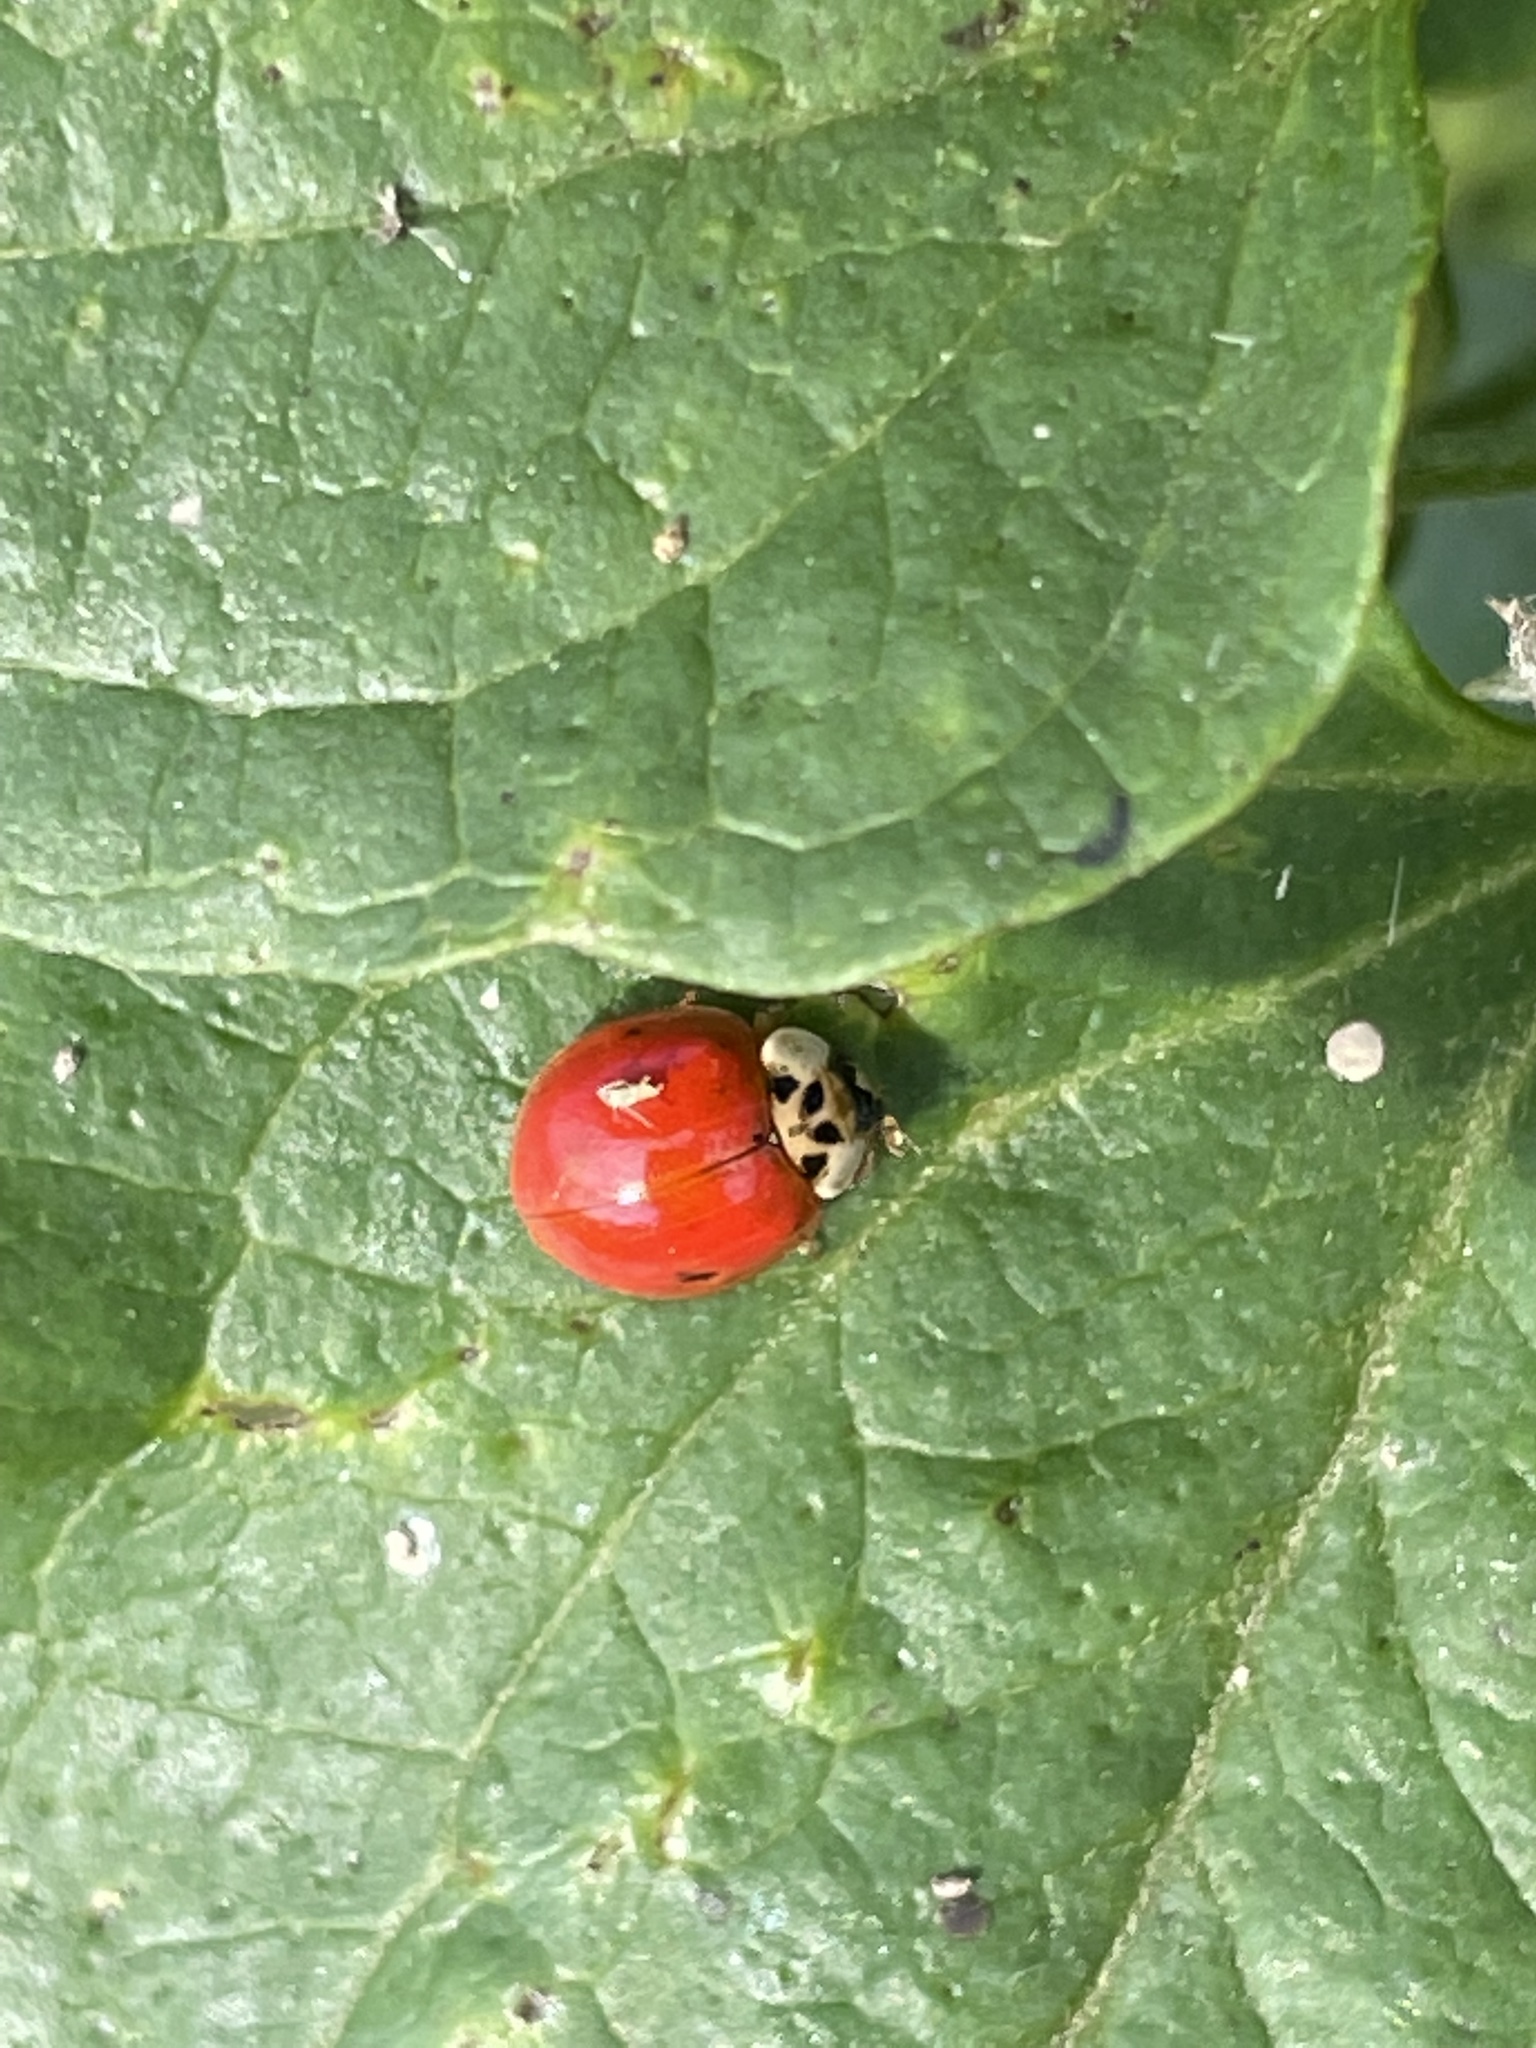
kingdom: Animalia
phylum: Arthropoda
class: Insecta
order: Coleoptera
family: Coccinellidae
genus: Harmonia
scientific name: Harmonia axyridis
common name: Harlequin ladybird
